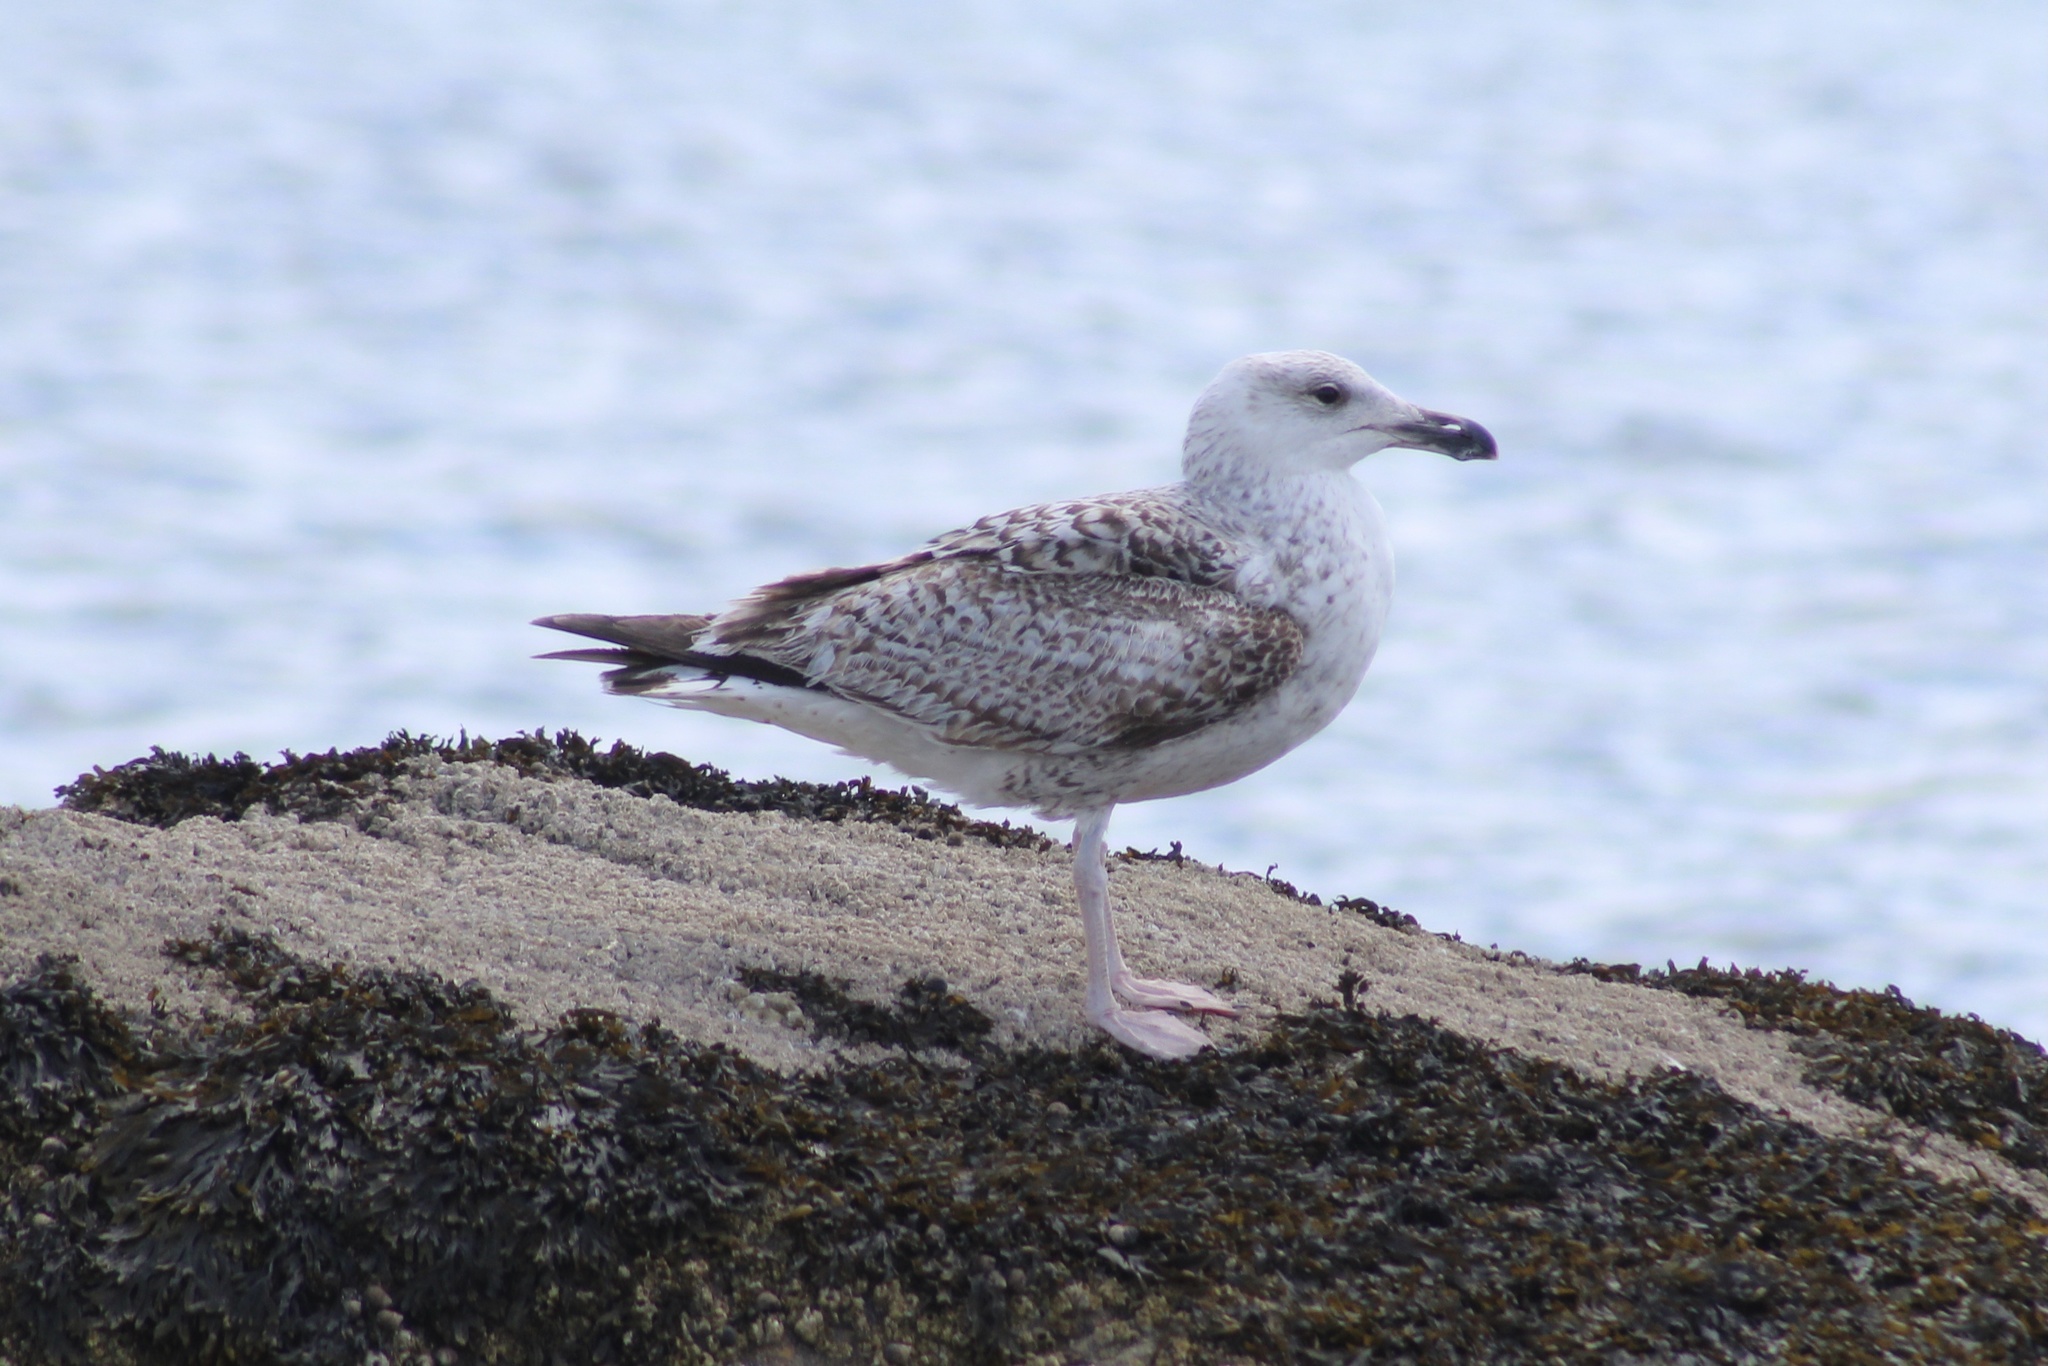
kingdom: Animalia
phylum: Chordata
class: Aves
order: Charadriiformes
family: Laridae
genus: Larus
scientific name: Larus marinus
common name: Great black-backed gull
